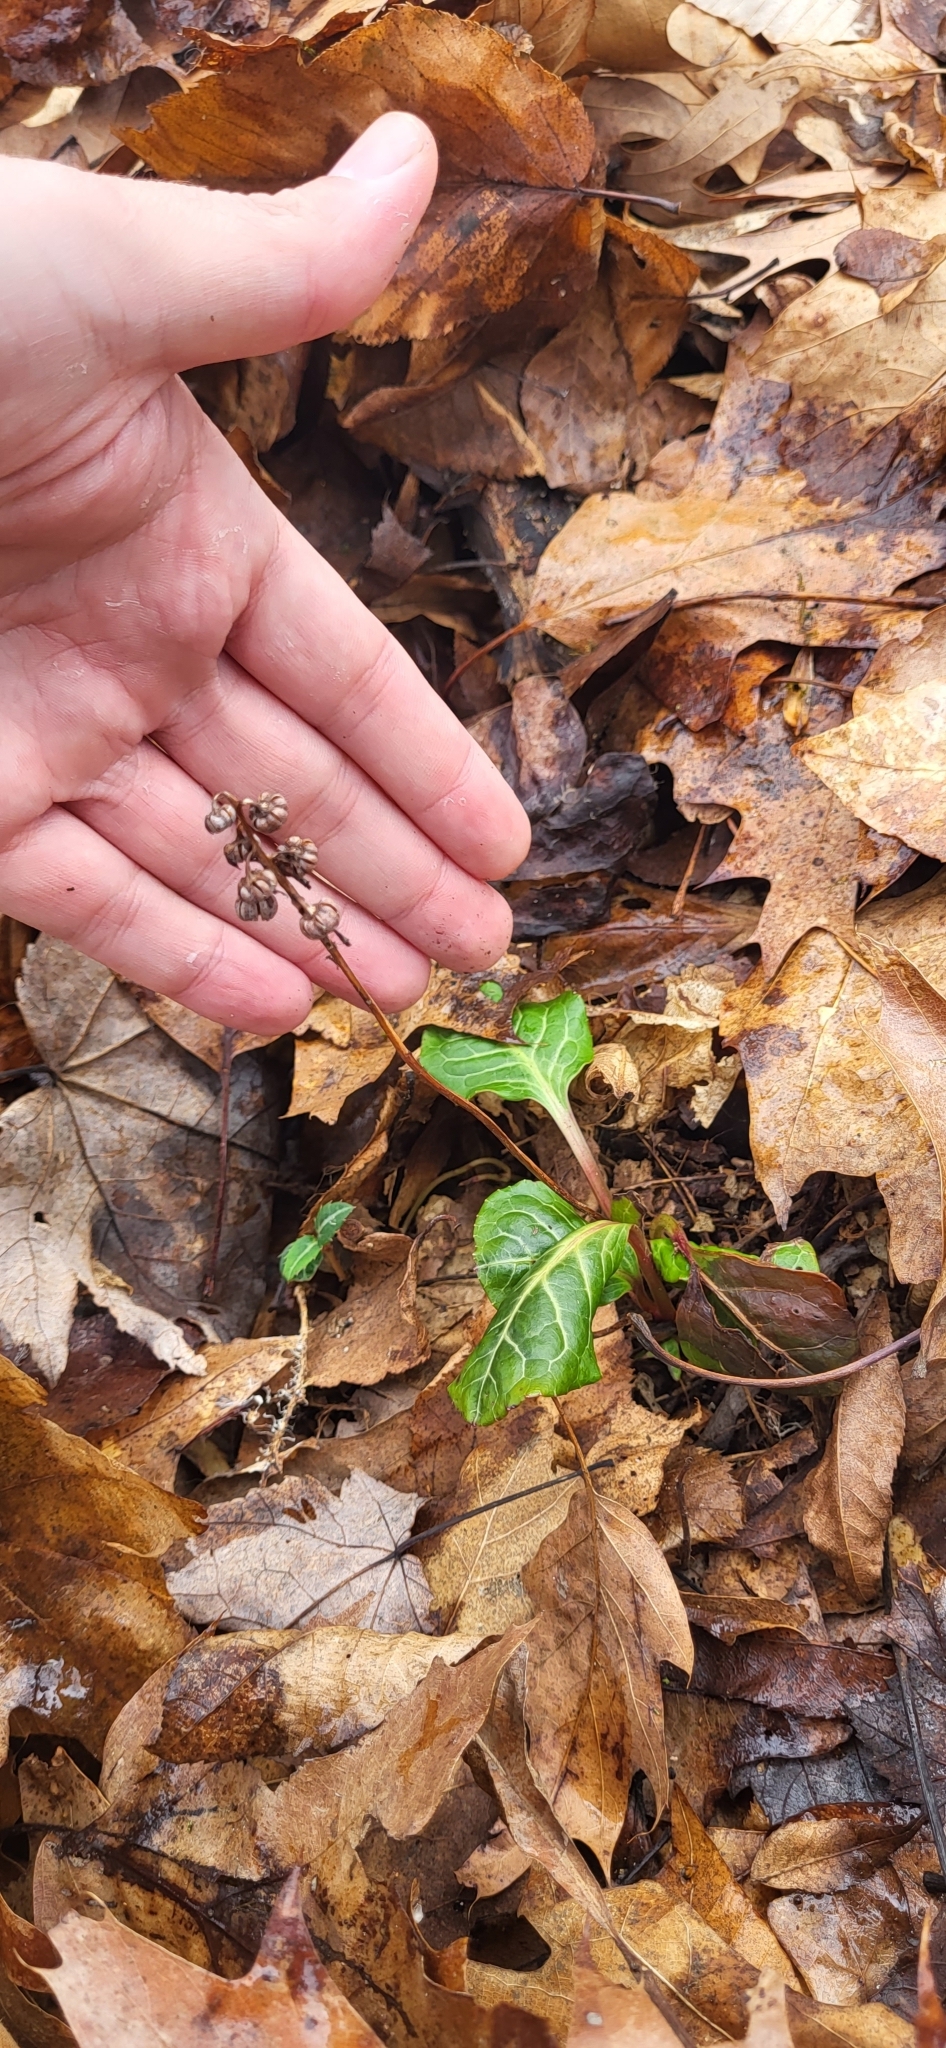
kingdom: Plantae
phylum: Tracheophyta
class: Magnoliopsida
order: Ericales
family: Ericaceae
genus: Pyrola
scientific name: Pyrola americana
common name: American wintergreen
